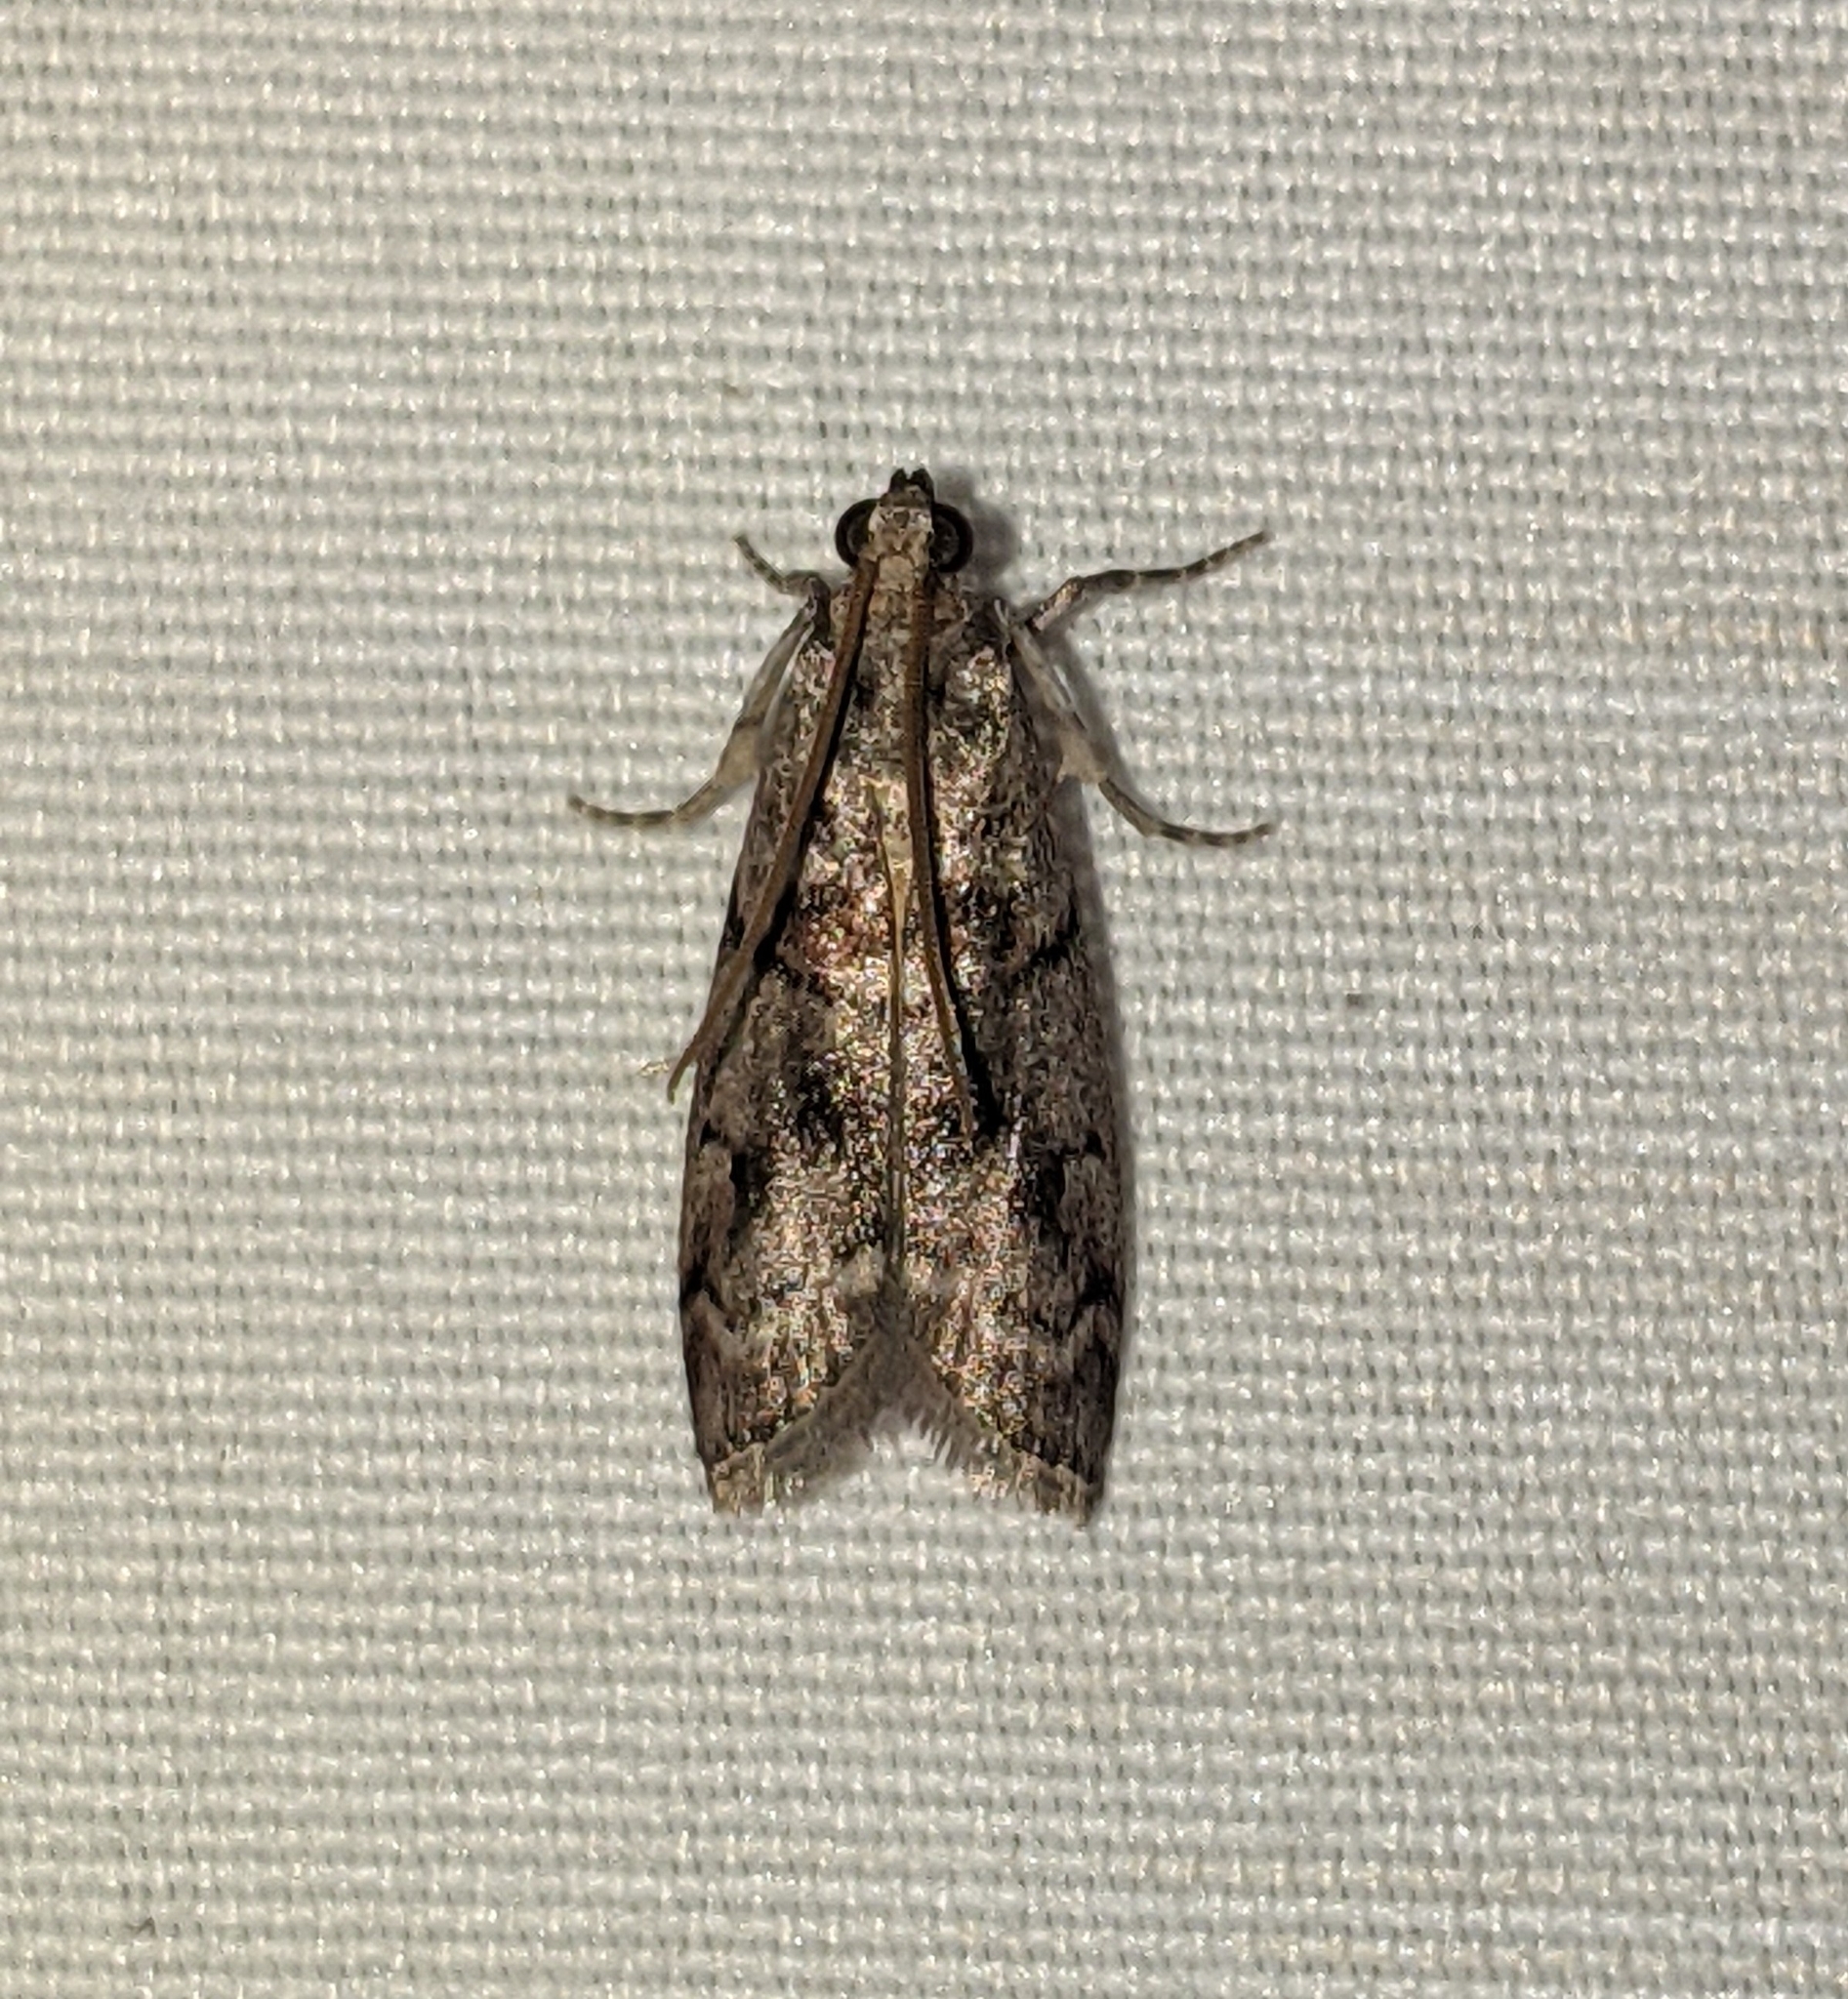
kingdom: Animalia
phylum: Arthropoda
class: Insecta
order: Lepidoptera
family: Pyralidae
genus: Acrobasis
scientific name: Acrobasis tricolorella
